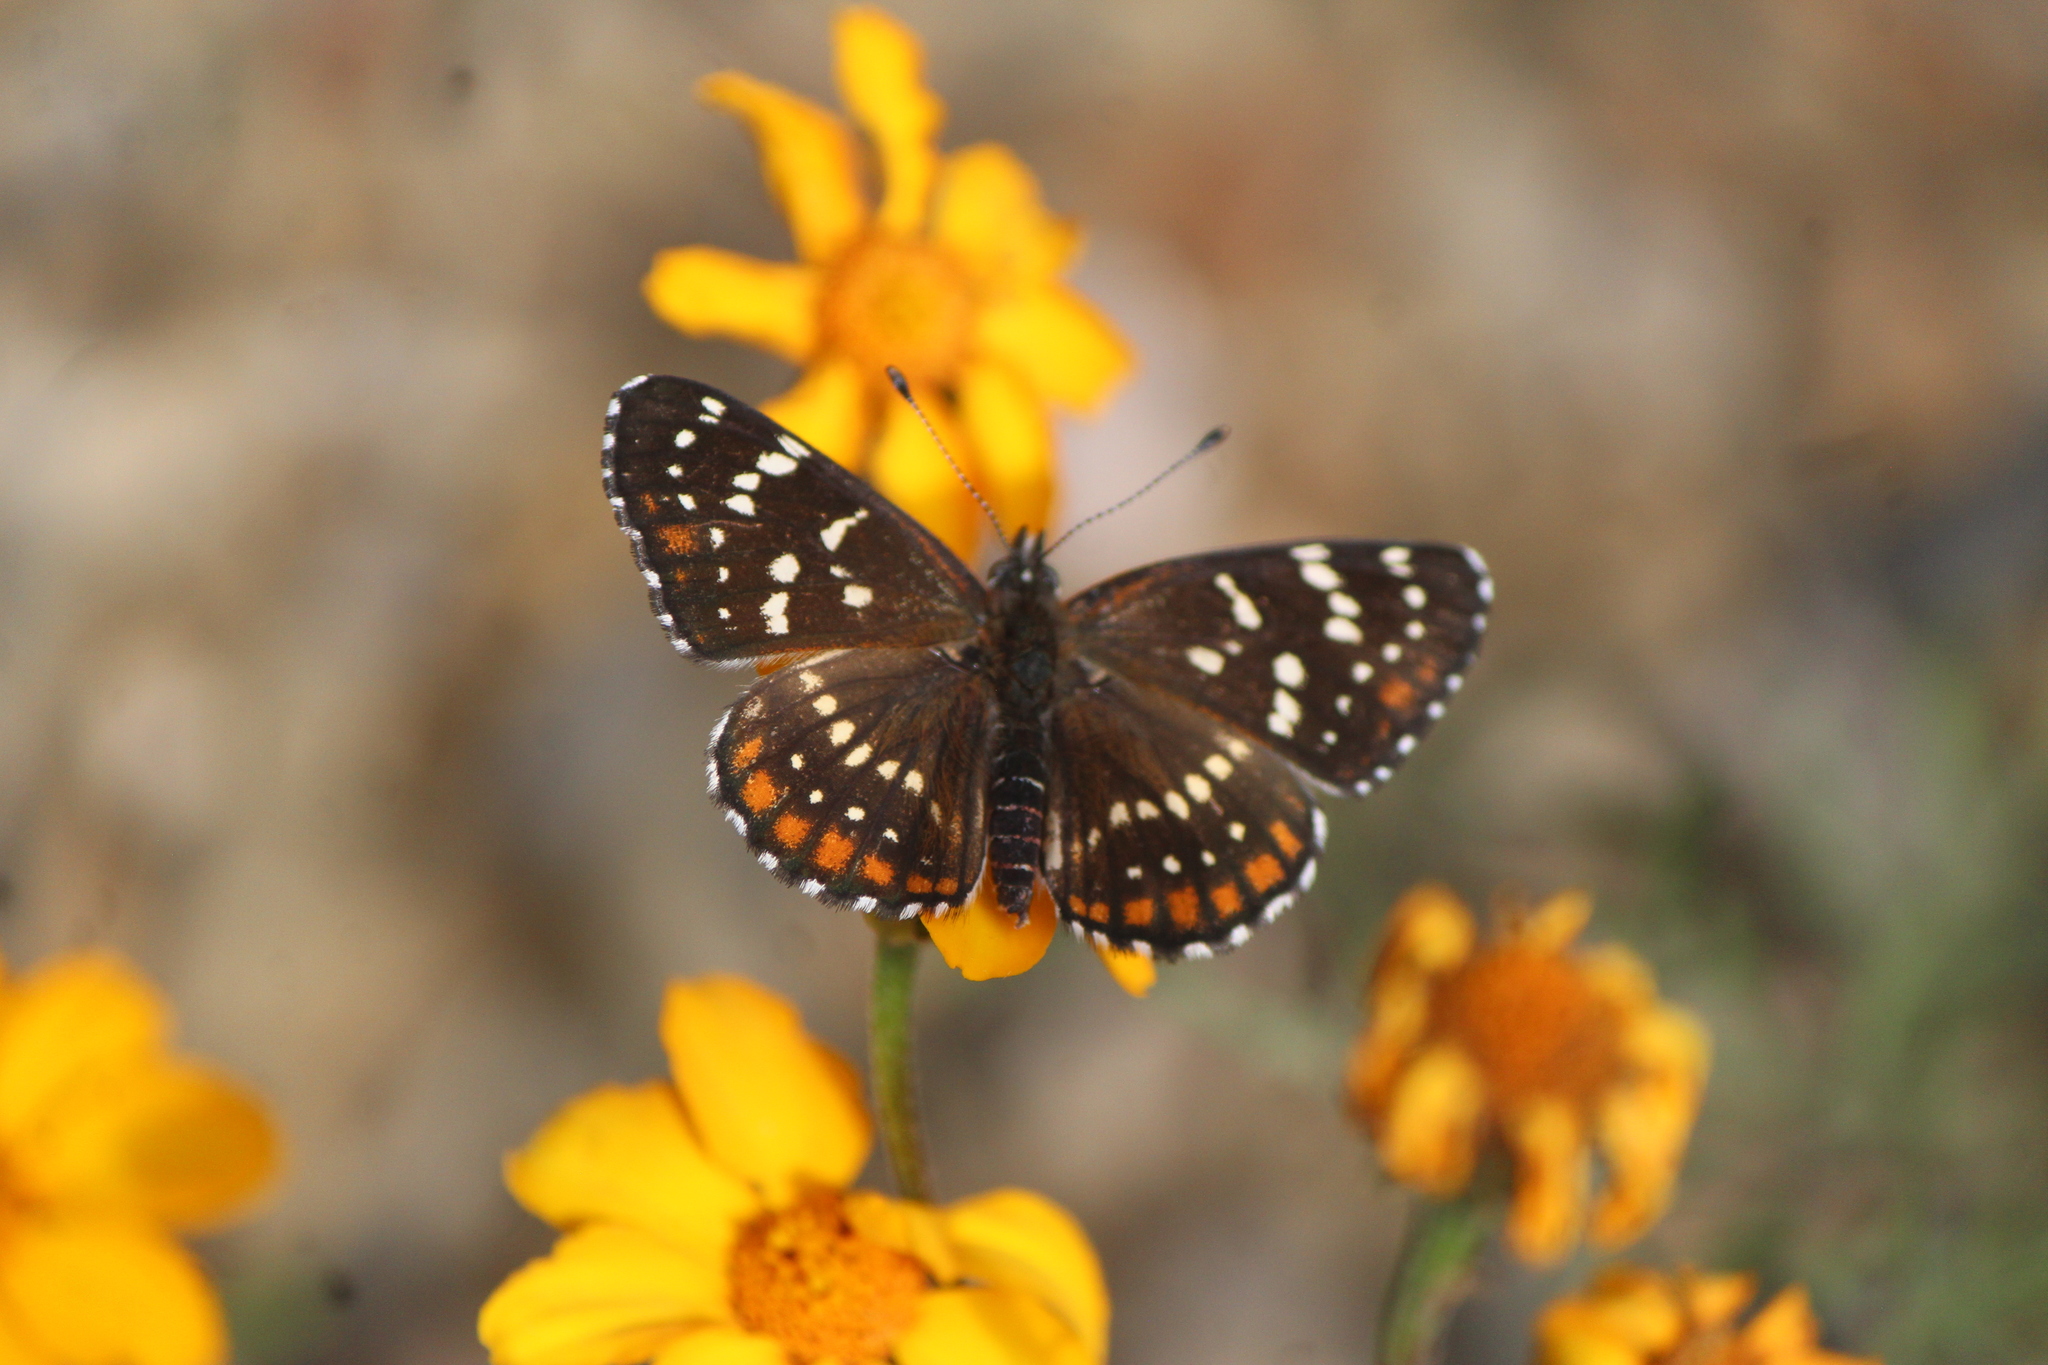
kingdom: Animalia
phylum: Arthropoda
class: Insecta
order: Lepidoptera
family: Nymphalidae
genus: Thessalia
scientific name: Thessalia leanira
